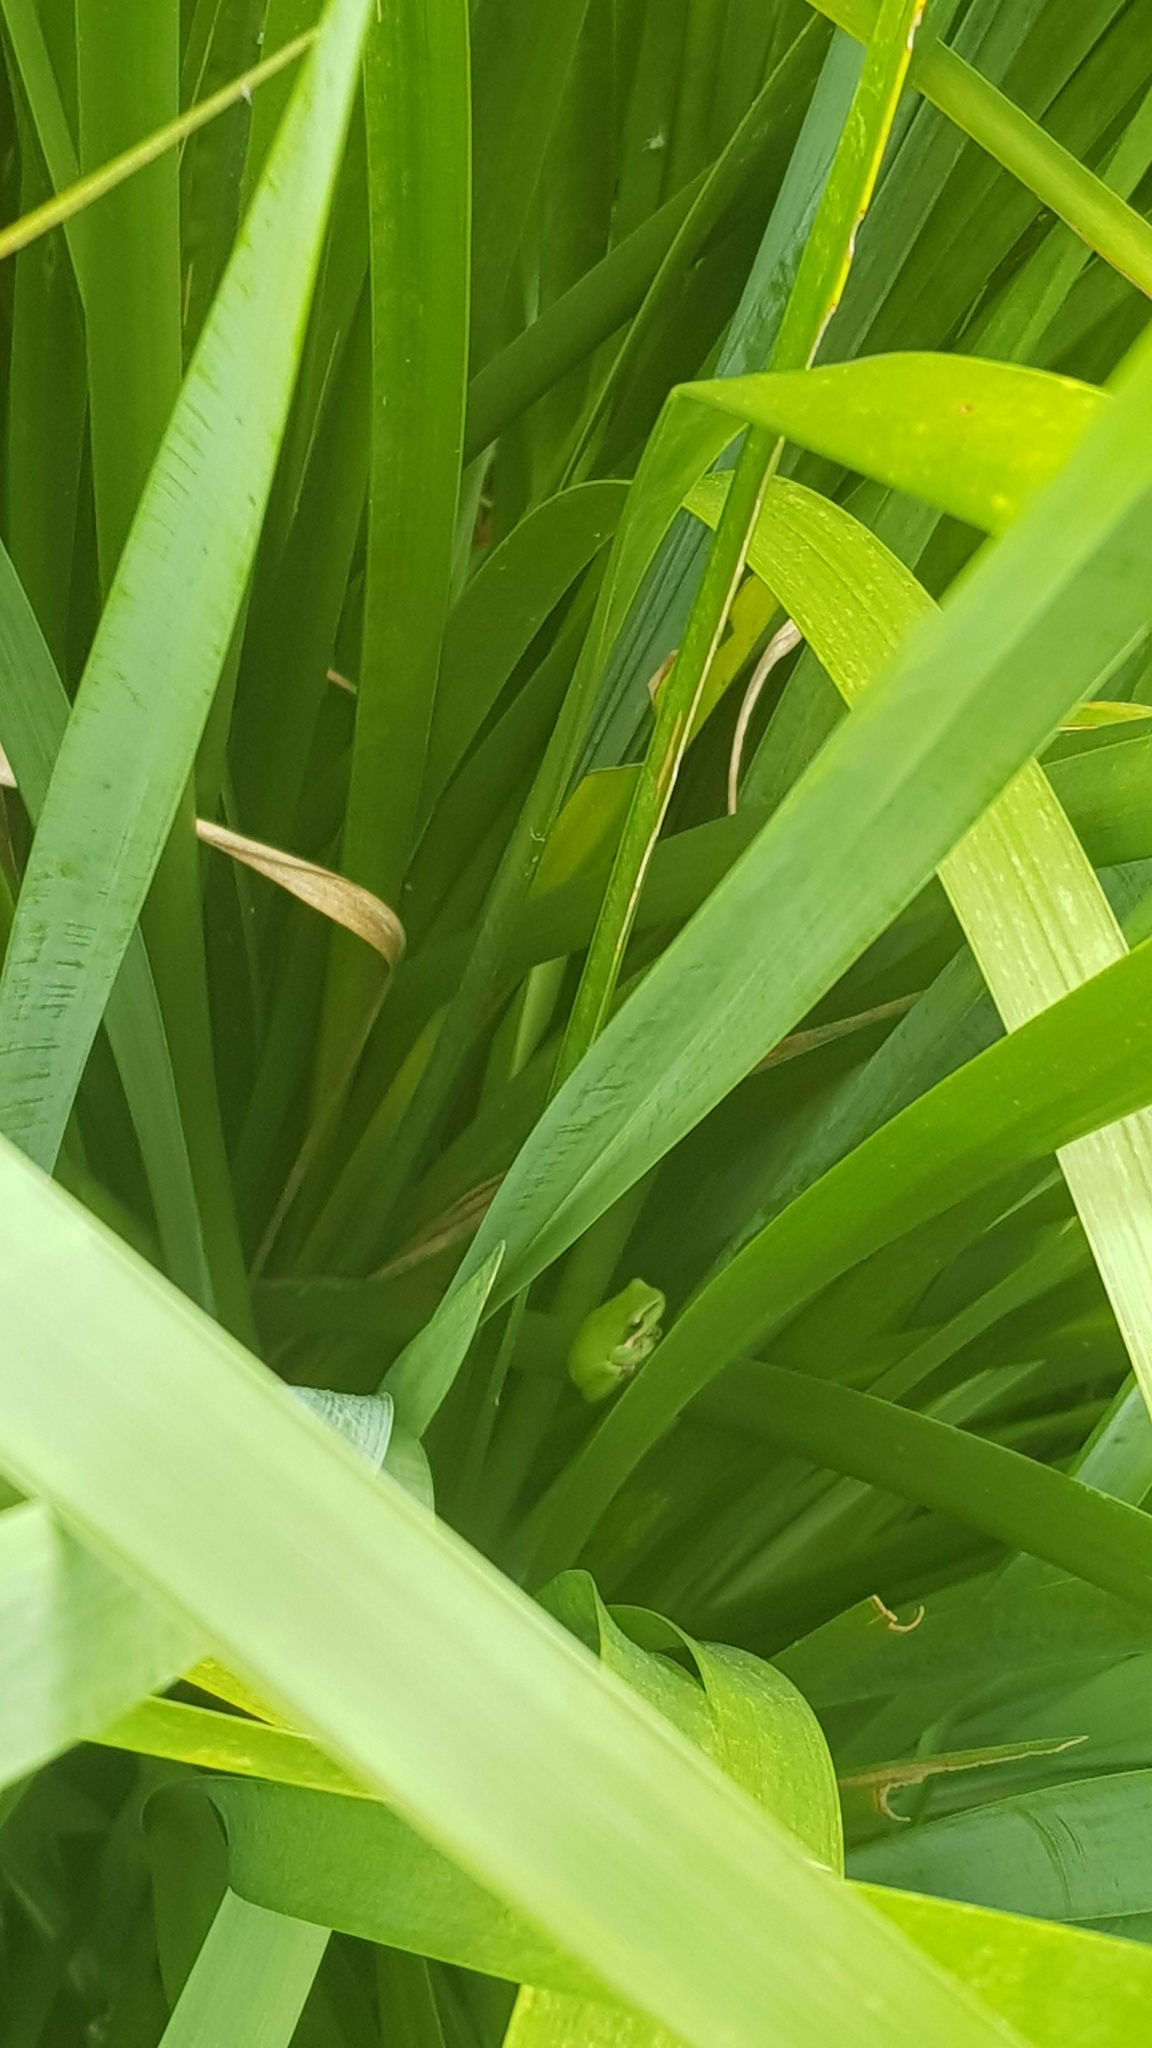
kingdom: Animalia
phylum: Chordata
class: Amphibia
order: Anura
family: Pelodryadidae
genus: Litoria
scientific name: Litoria fallax
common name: Eastern dwarf treefrog
